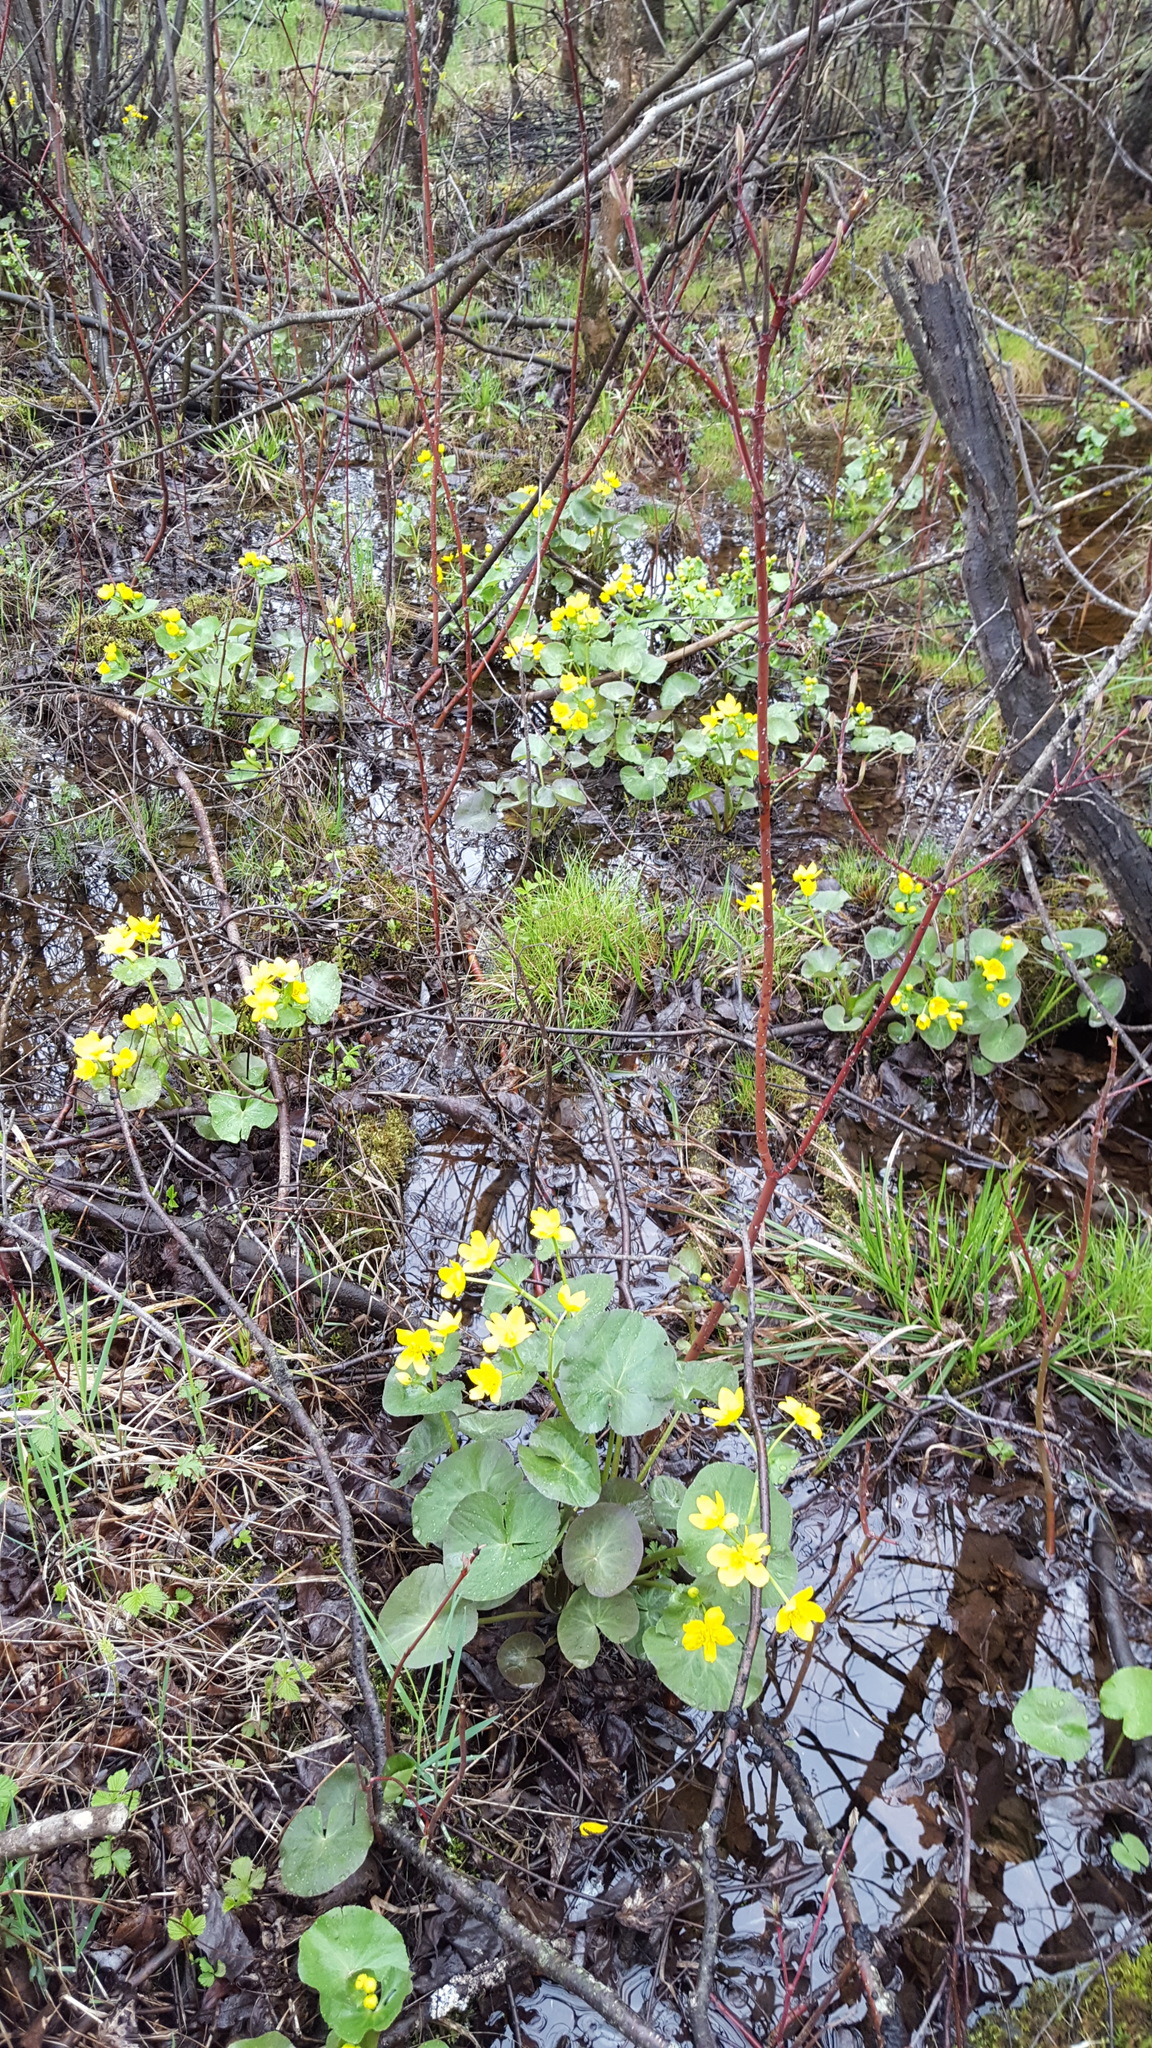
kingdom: Plantae
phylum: Tracheophyta
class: Magnoliopsida
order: Ranunculales
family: Ranunculaceae
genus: Caltha
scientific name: Caltha palustris
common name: Marsh marigold
